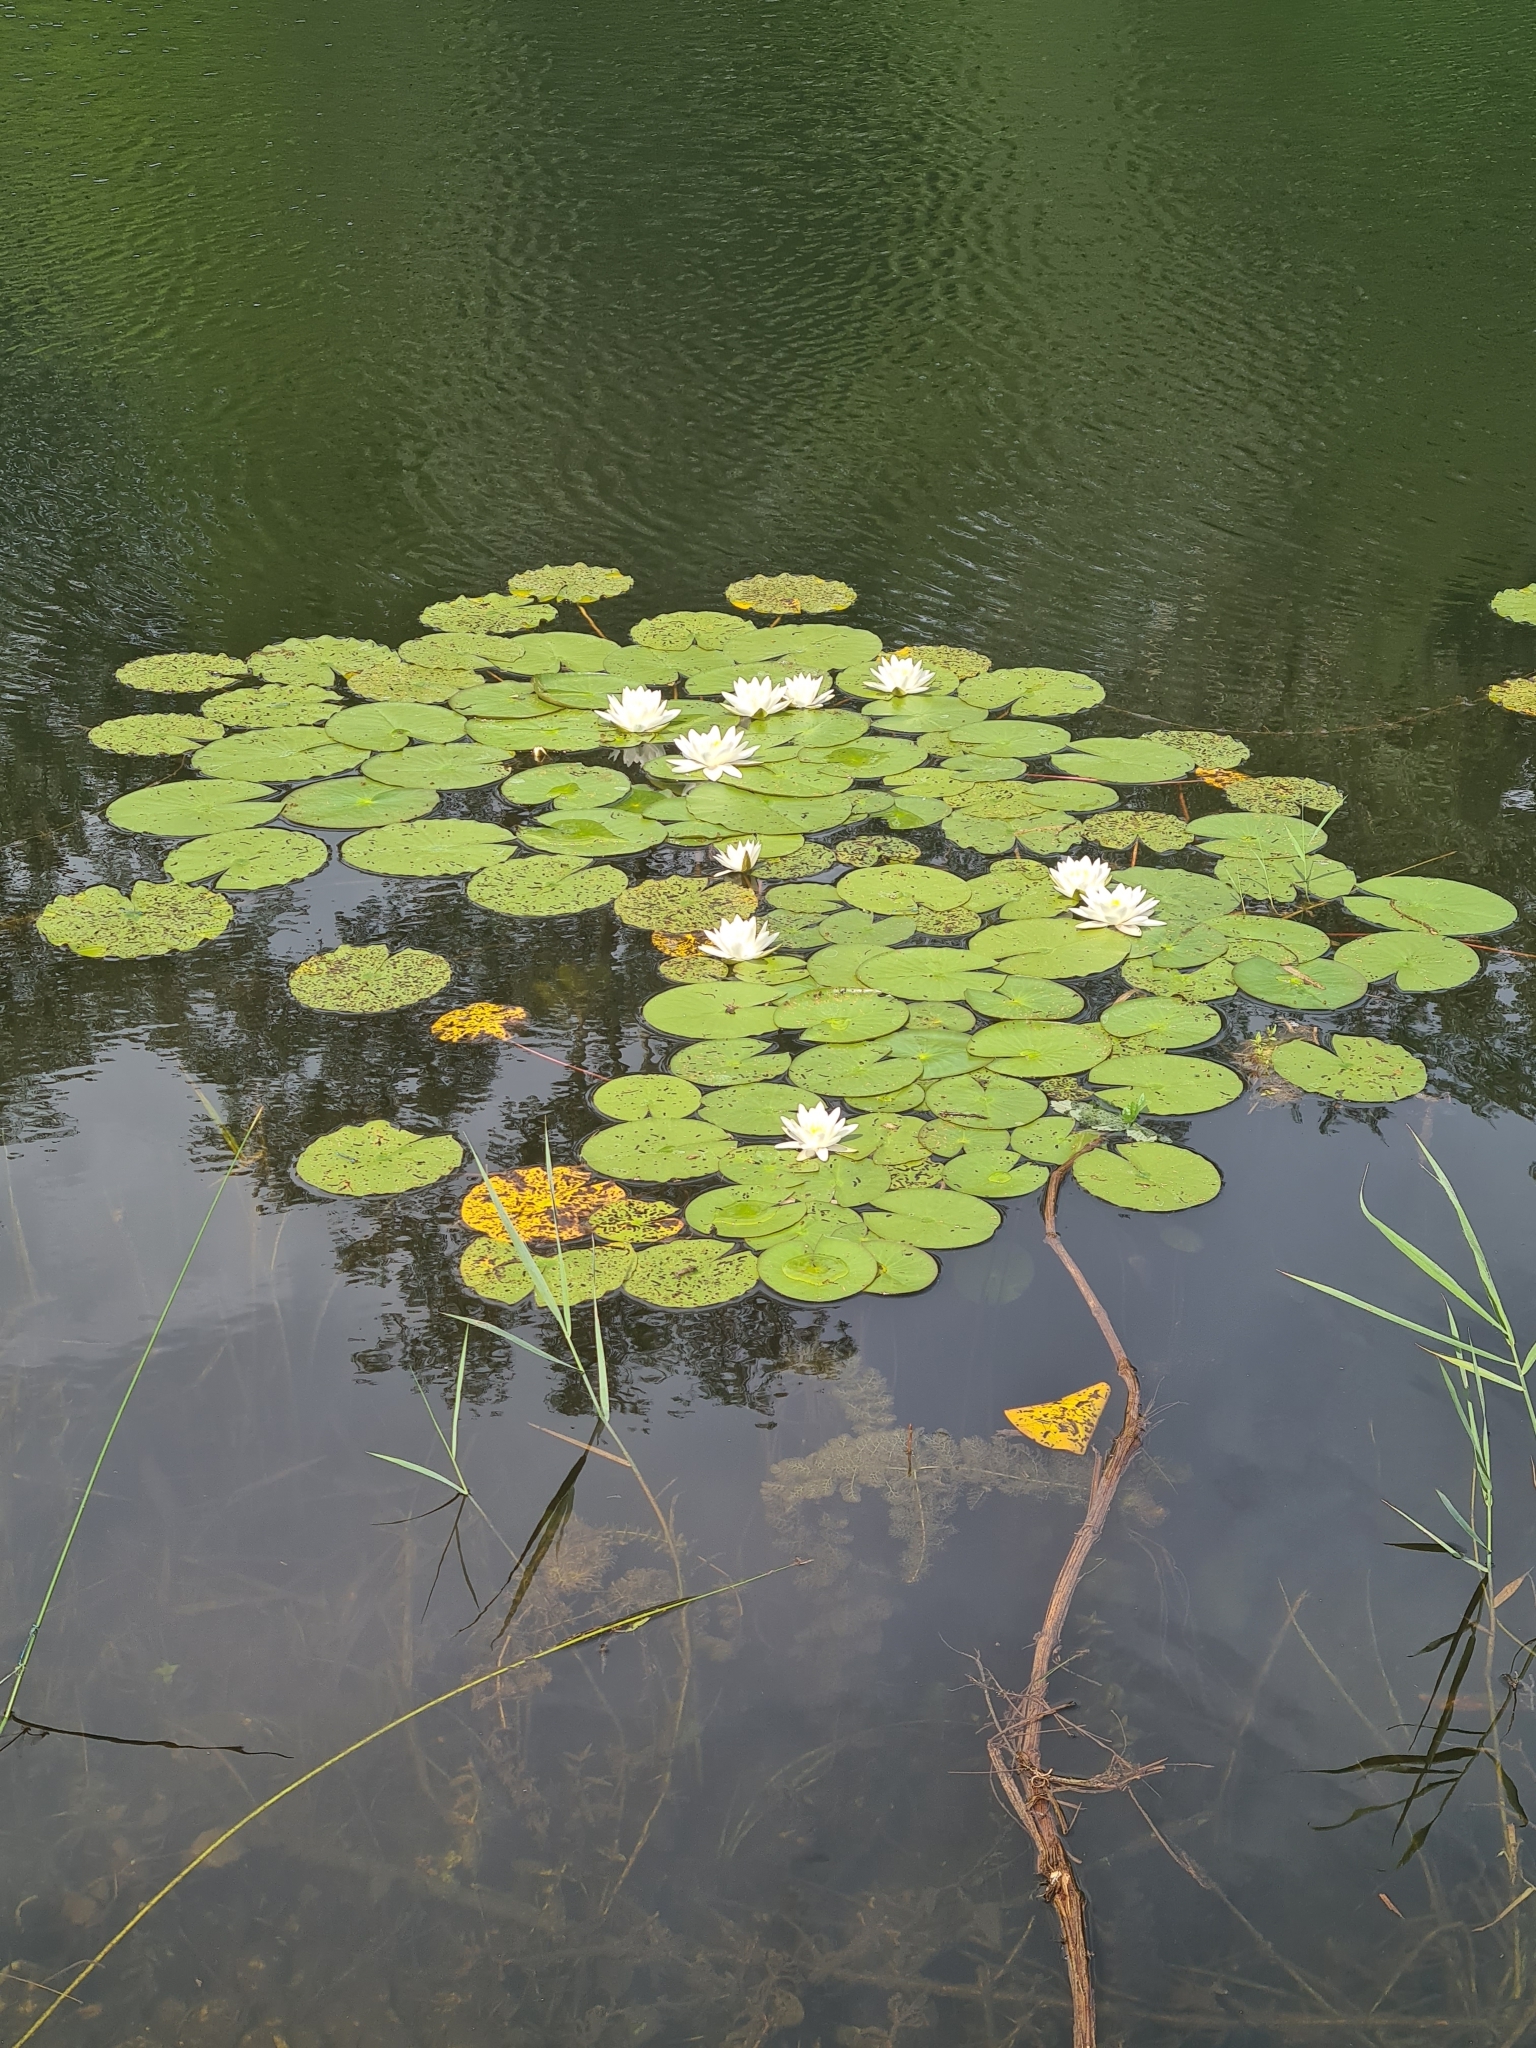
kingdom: Plantae
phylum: Tracheophyta
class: Magnoliopsida
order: Nymphaeales
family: Nymphaeaceae
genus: Nymphaea
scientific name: Nymphaea alba
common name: White water-lily
